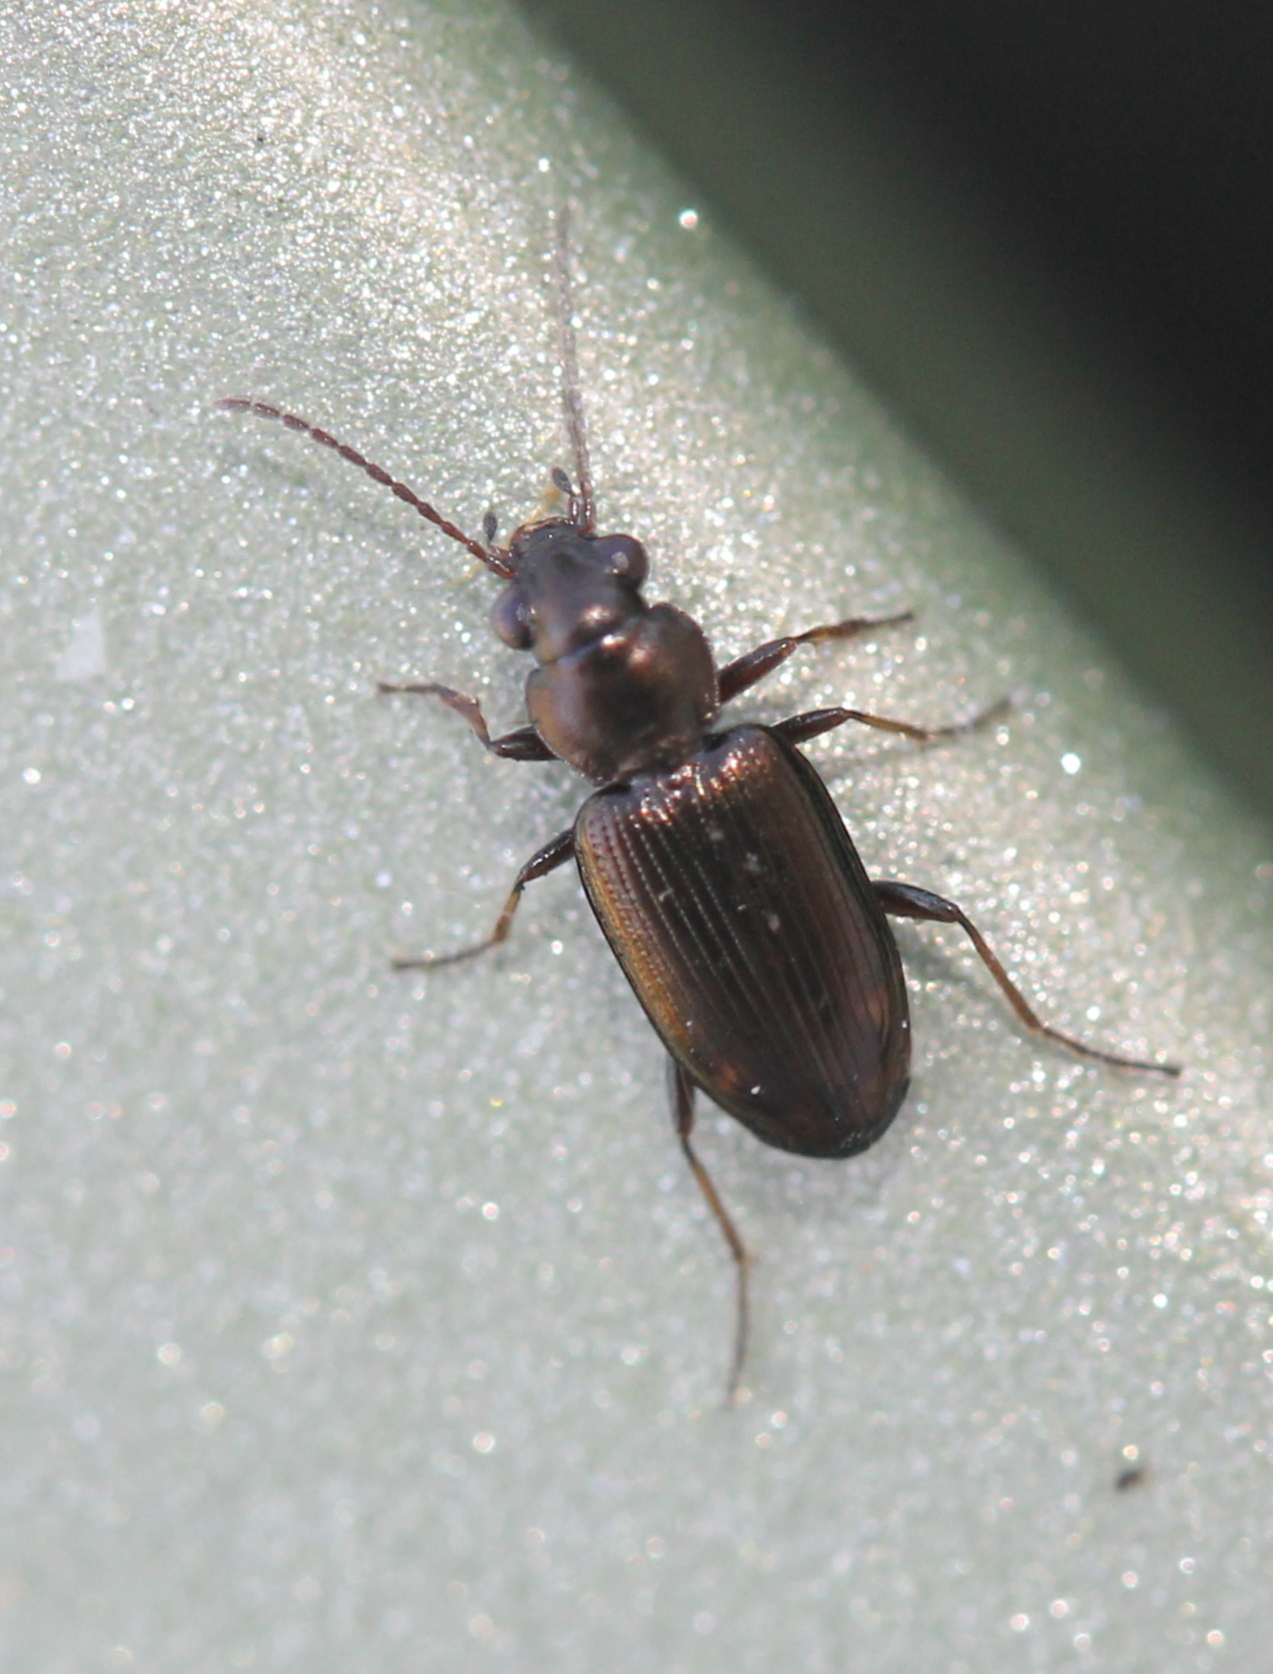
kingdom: Animalia
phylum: Arthropoda
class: Insecta
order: Coleoptera
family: Carabidae
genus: Bembidion
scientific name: Bembidion rapidum
